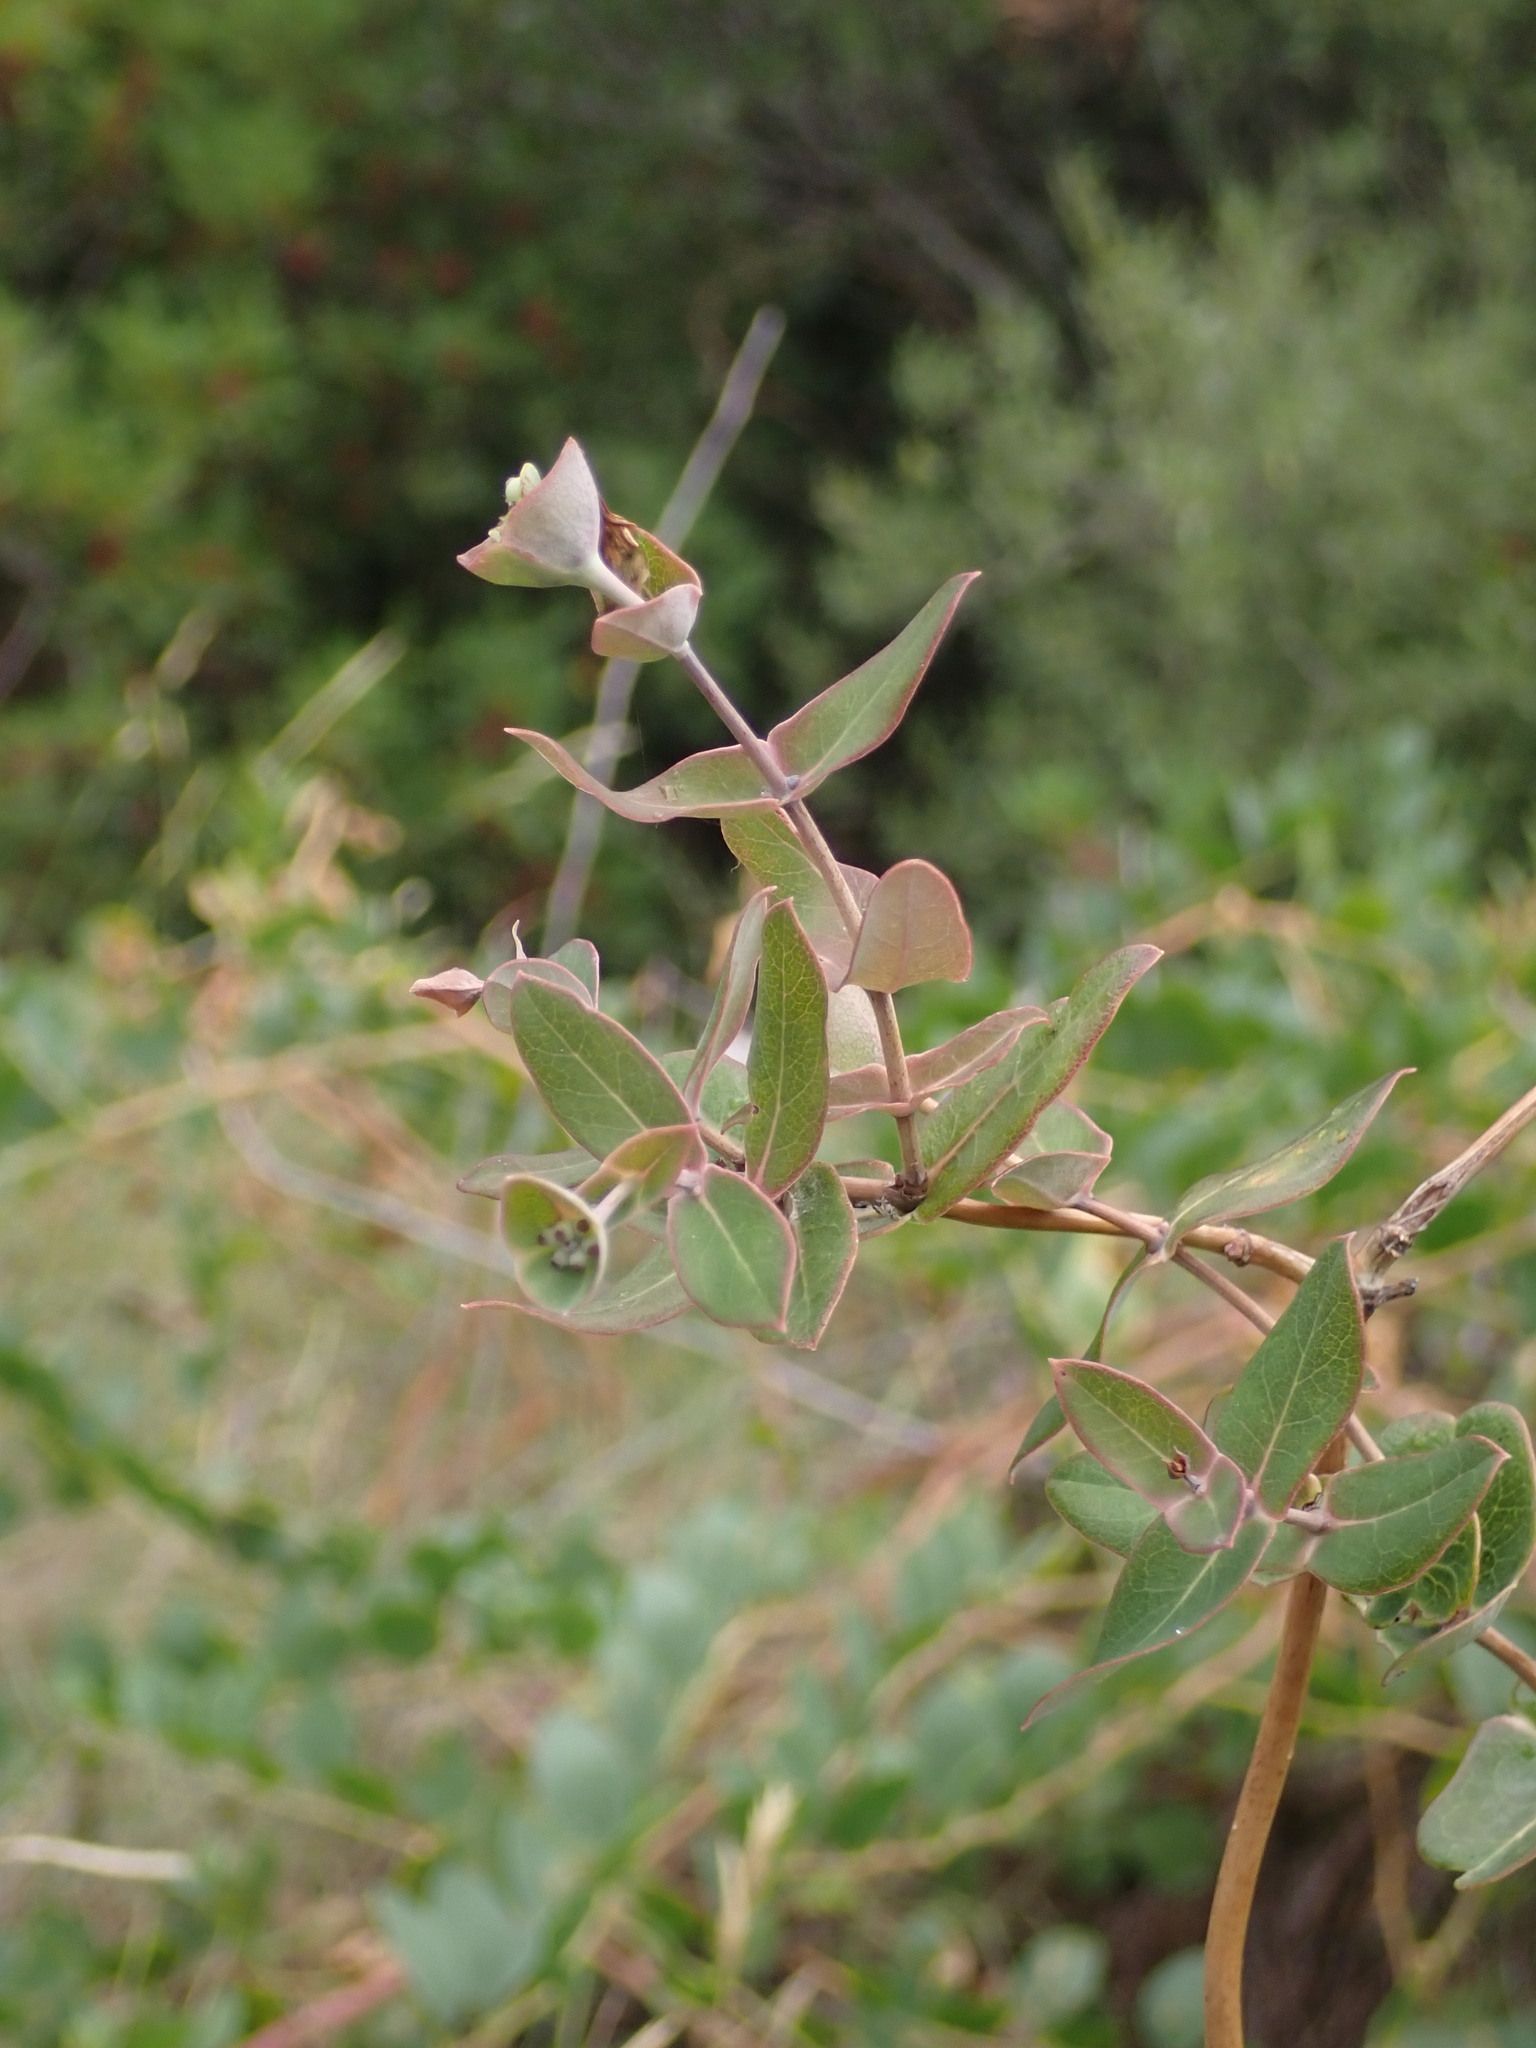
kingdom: Plantae
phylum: Tracheophyta
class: Magnoliopsida
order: Dipsacales
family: Caprifoliaceae
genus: Lonicera
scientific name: Lonicera implexa
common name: Minorca honeysuckle
